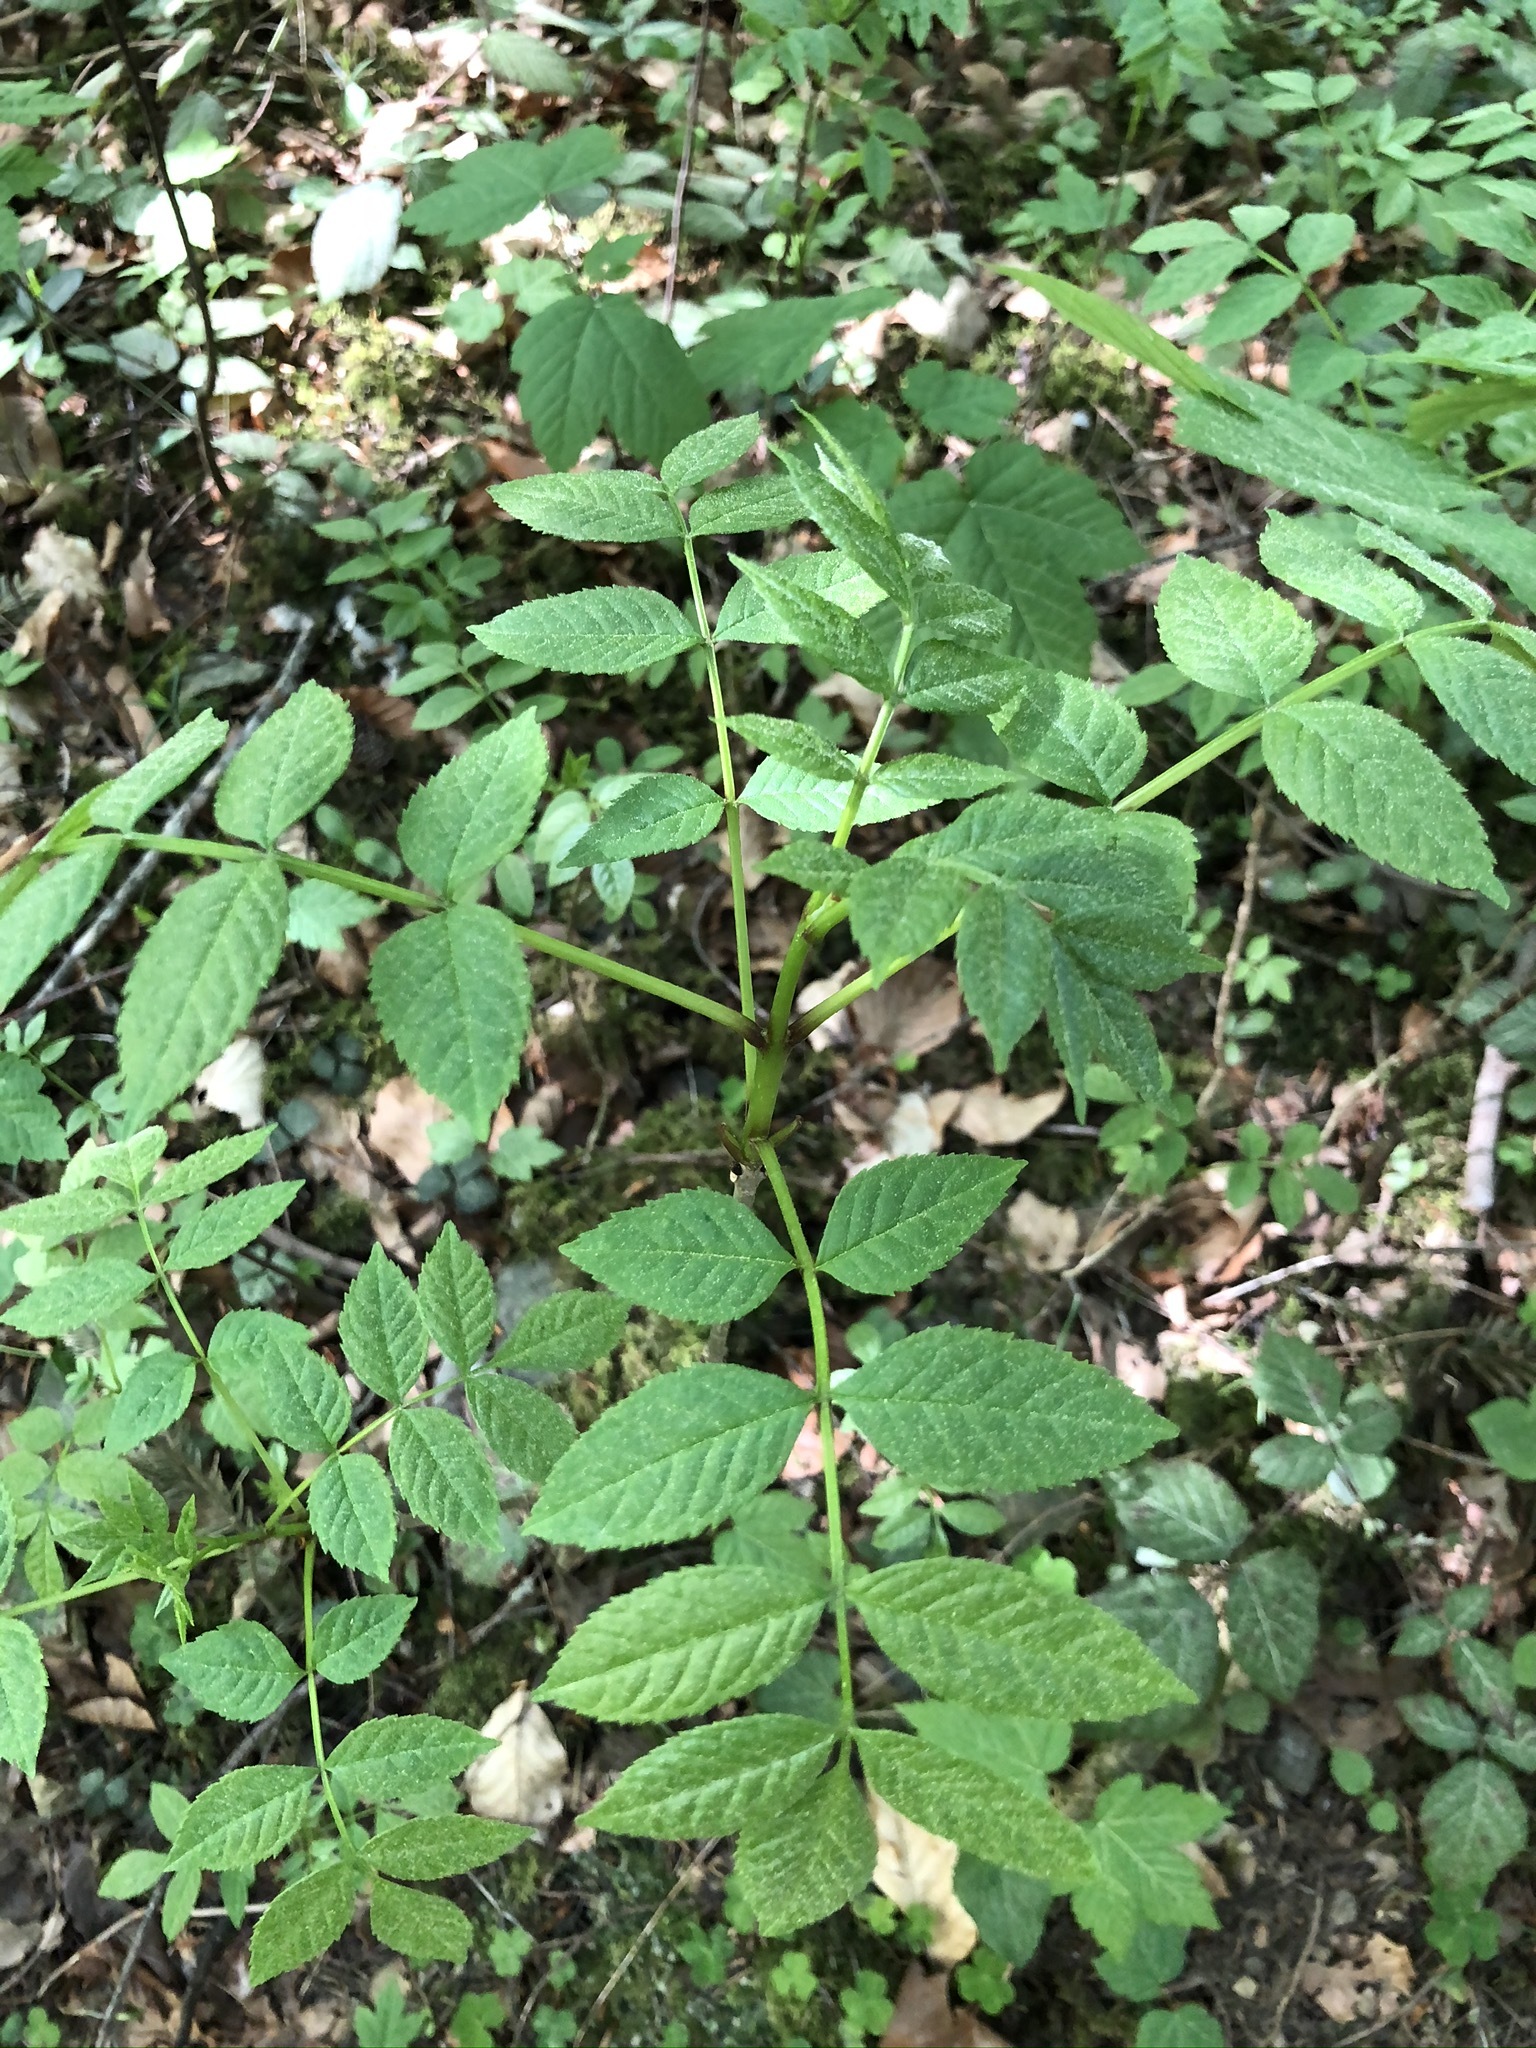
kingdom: Plantae
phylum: Tracheophyta
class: Magnoliopsida
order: Lamiales
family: Oleaceae
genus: Fraxinus
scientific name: Fraxinus excelsior
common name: European ash
